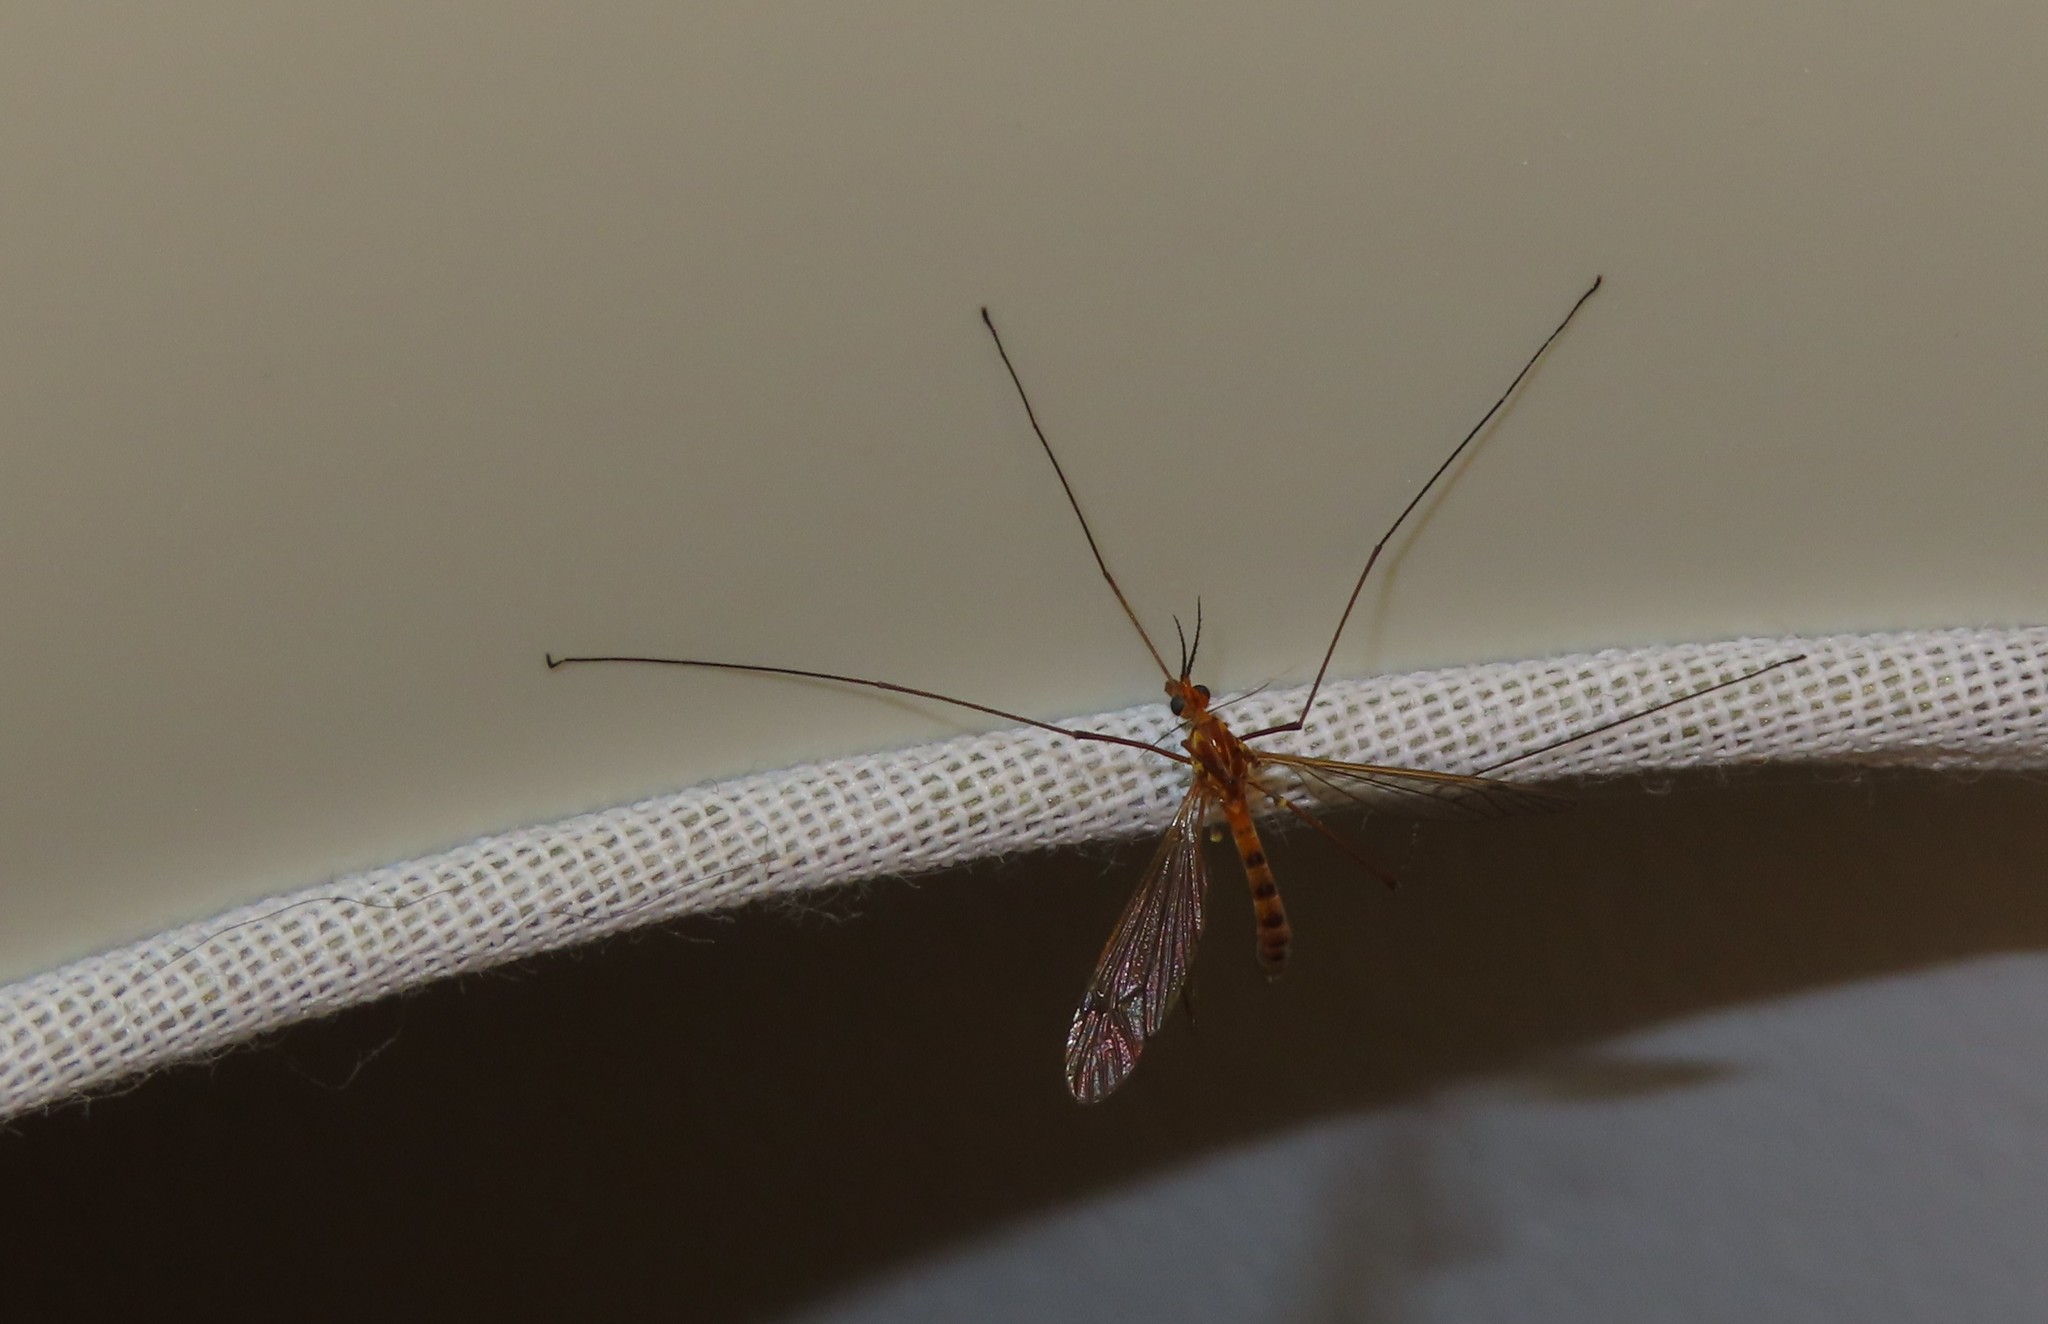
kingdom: Animalia
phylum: Arthropoda
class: Insecta
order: Diptera
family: Tipulidae
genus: Nephrotoma
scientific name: Nephrotoma ferruginea
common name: Ferruginous tiger crane fly
